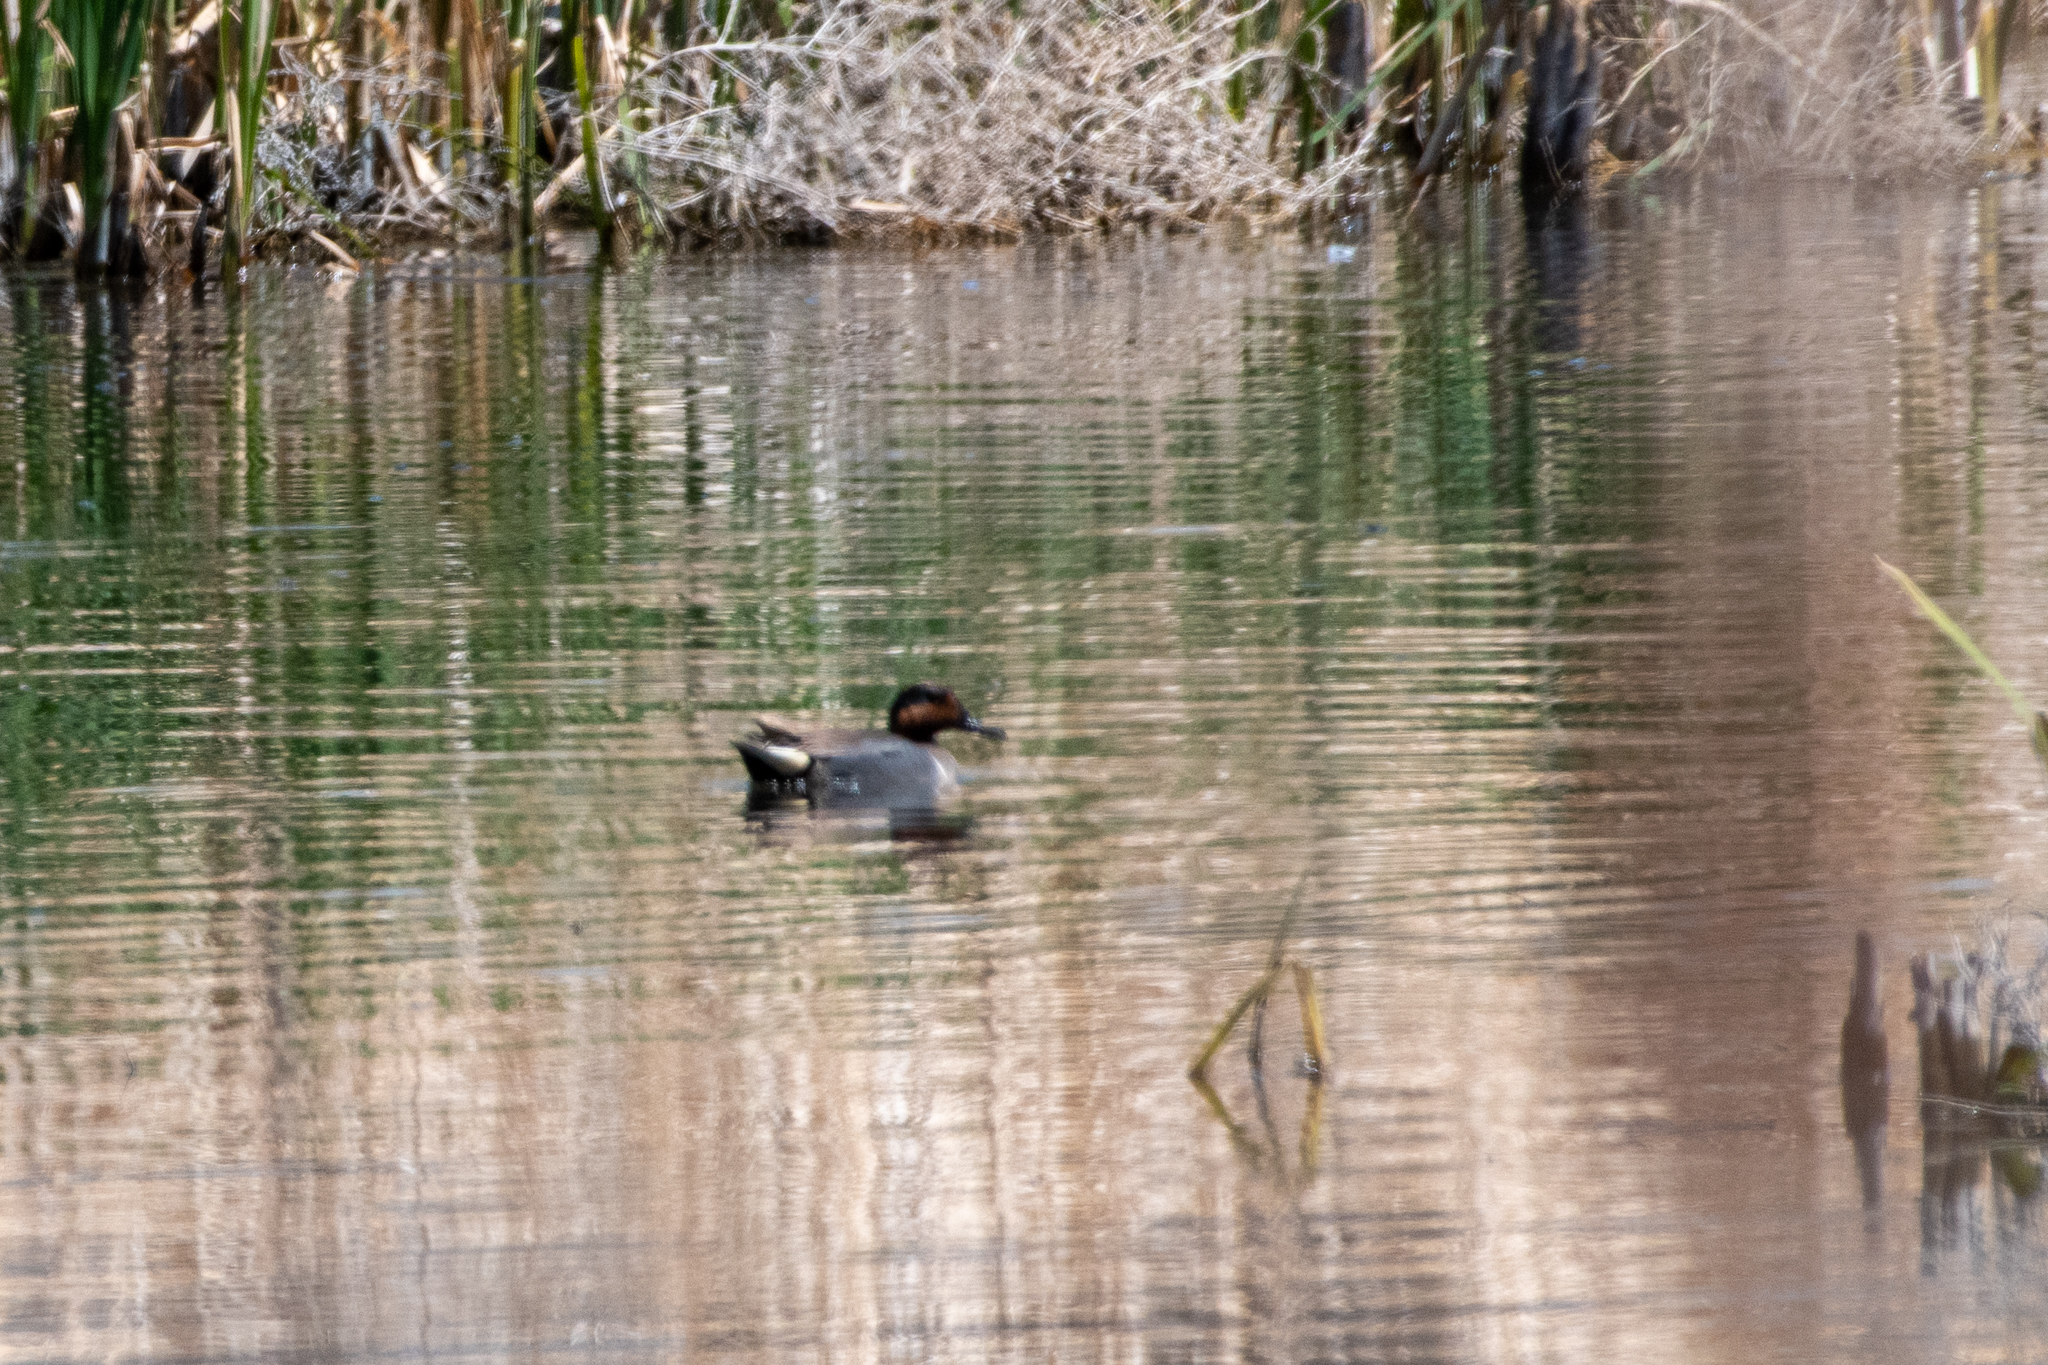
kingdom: Animalia
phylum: Chordata
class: Aves
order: Anseriformes
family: Anatidae
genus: Anas
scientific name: Anas crecca
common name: Eurasian teal
